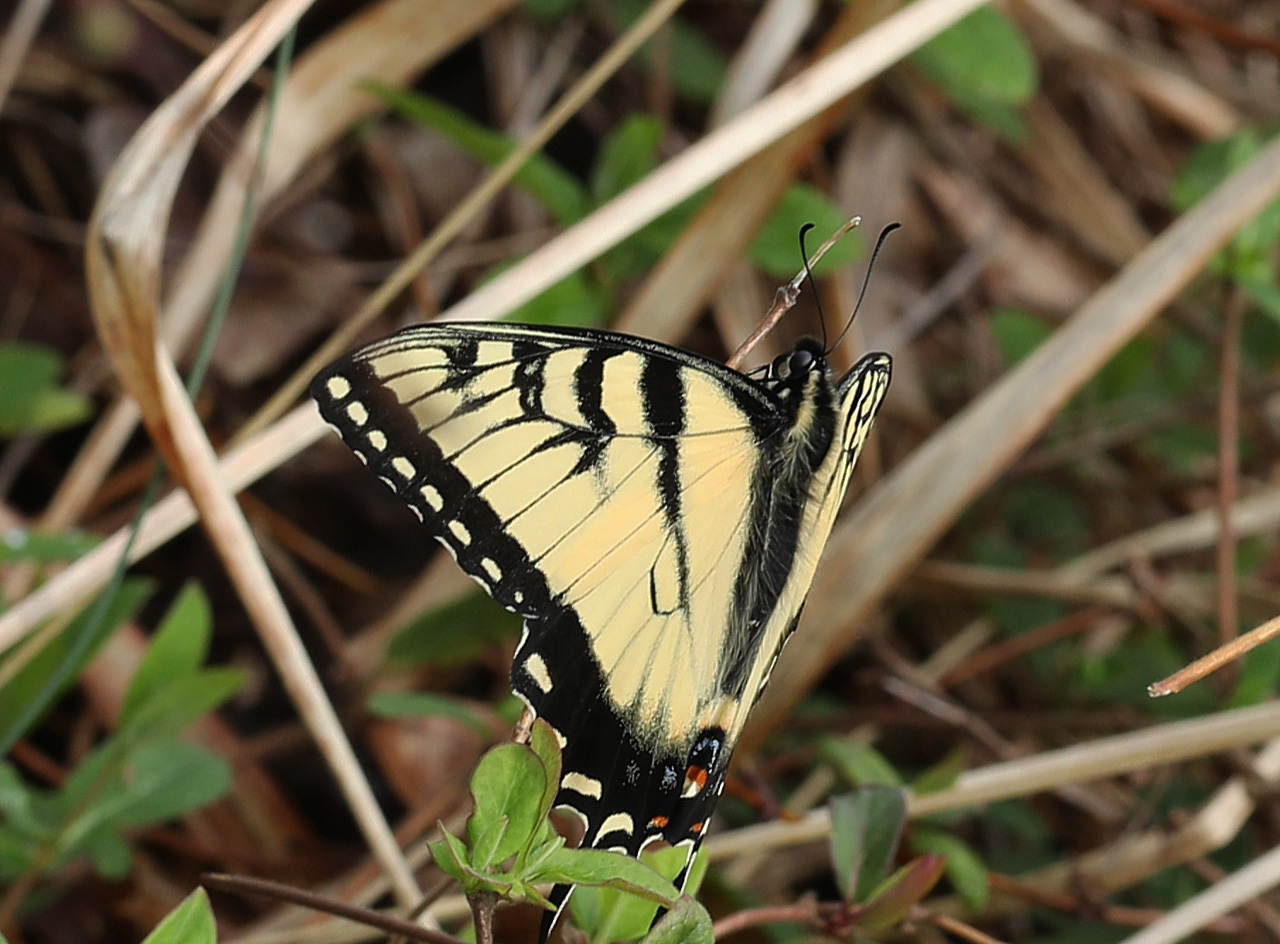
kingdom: Animalia
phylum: Arthropoda
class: Insecta
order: Lepidoptera
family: Papilionidae
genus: Papilio
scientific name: Papilio glaucus
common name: Tiger swallowtail
